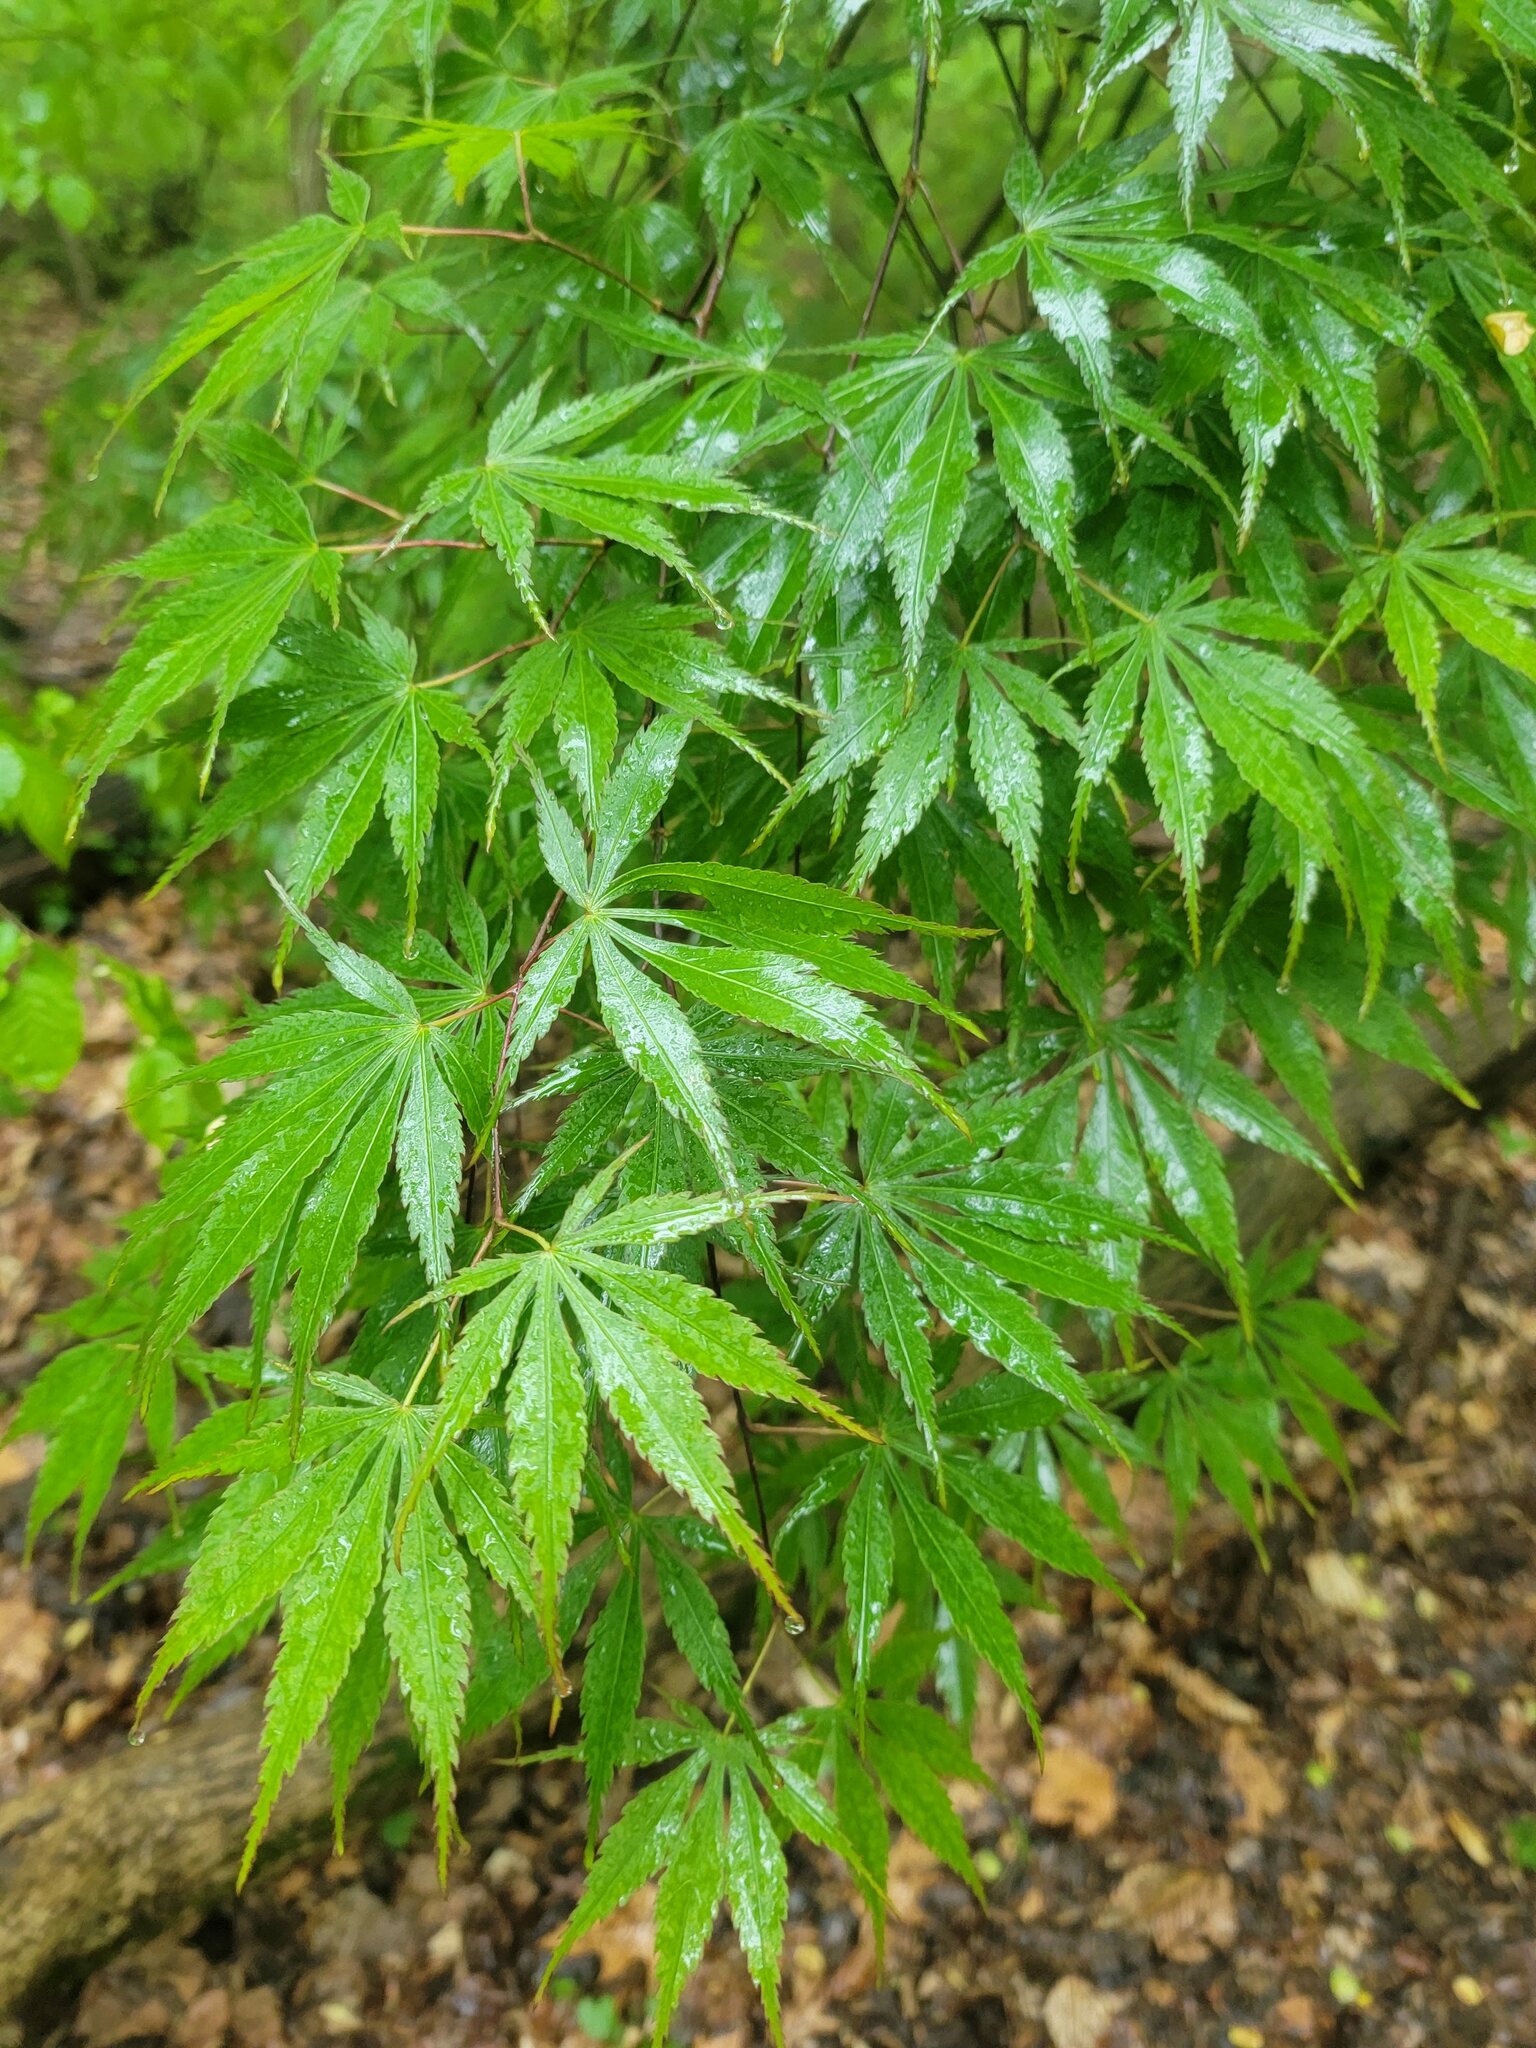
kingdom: Plantae
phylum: Tracheophyta
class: Magnoliopsida
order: Sapindales
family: Sapindaceae
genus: Acer
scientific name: Acer palmatum
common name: Japanese maple
